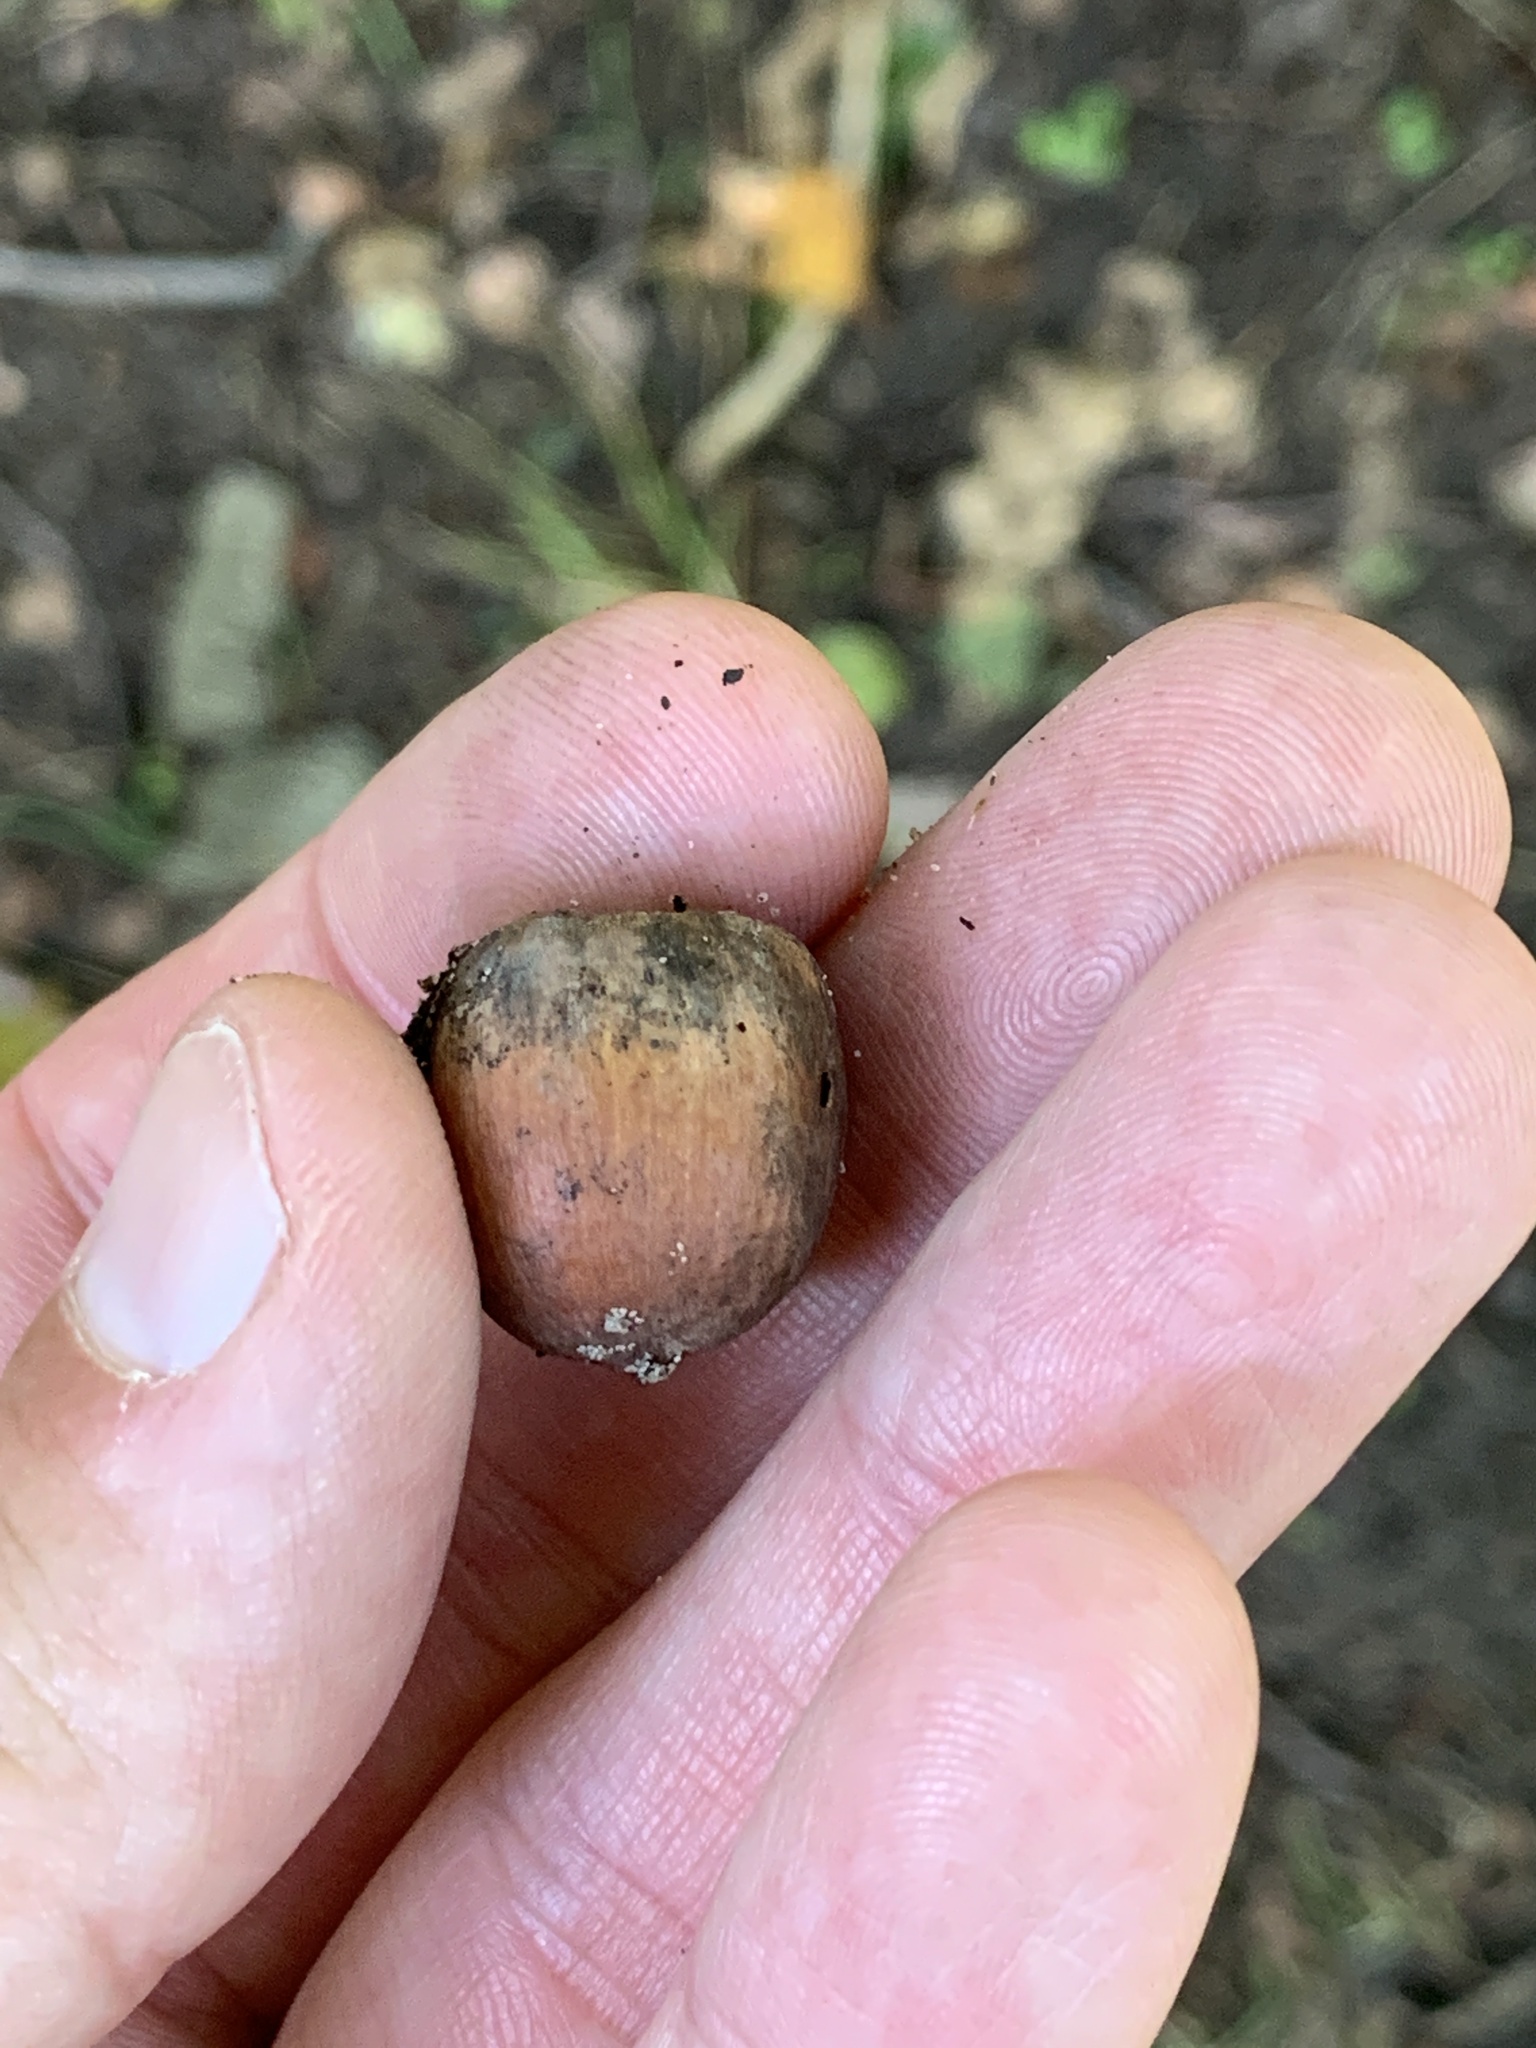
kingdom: Plantae
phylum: Tracheophyta
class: Magnoliopsida
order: Fagales
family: Fagaceae
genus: Quercus
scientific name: Quercus rubra
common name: Red oak
